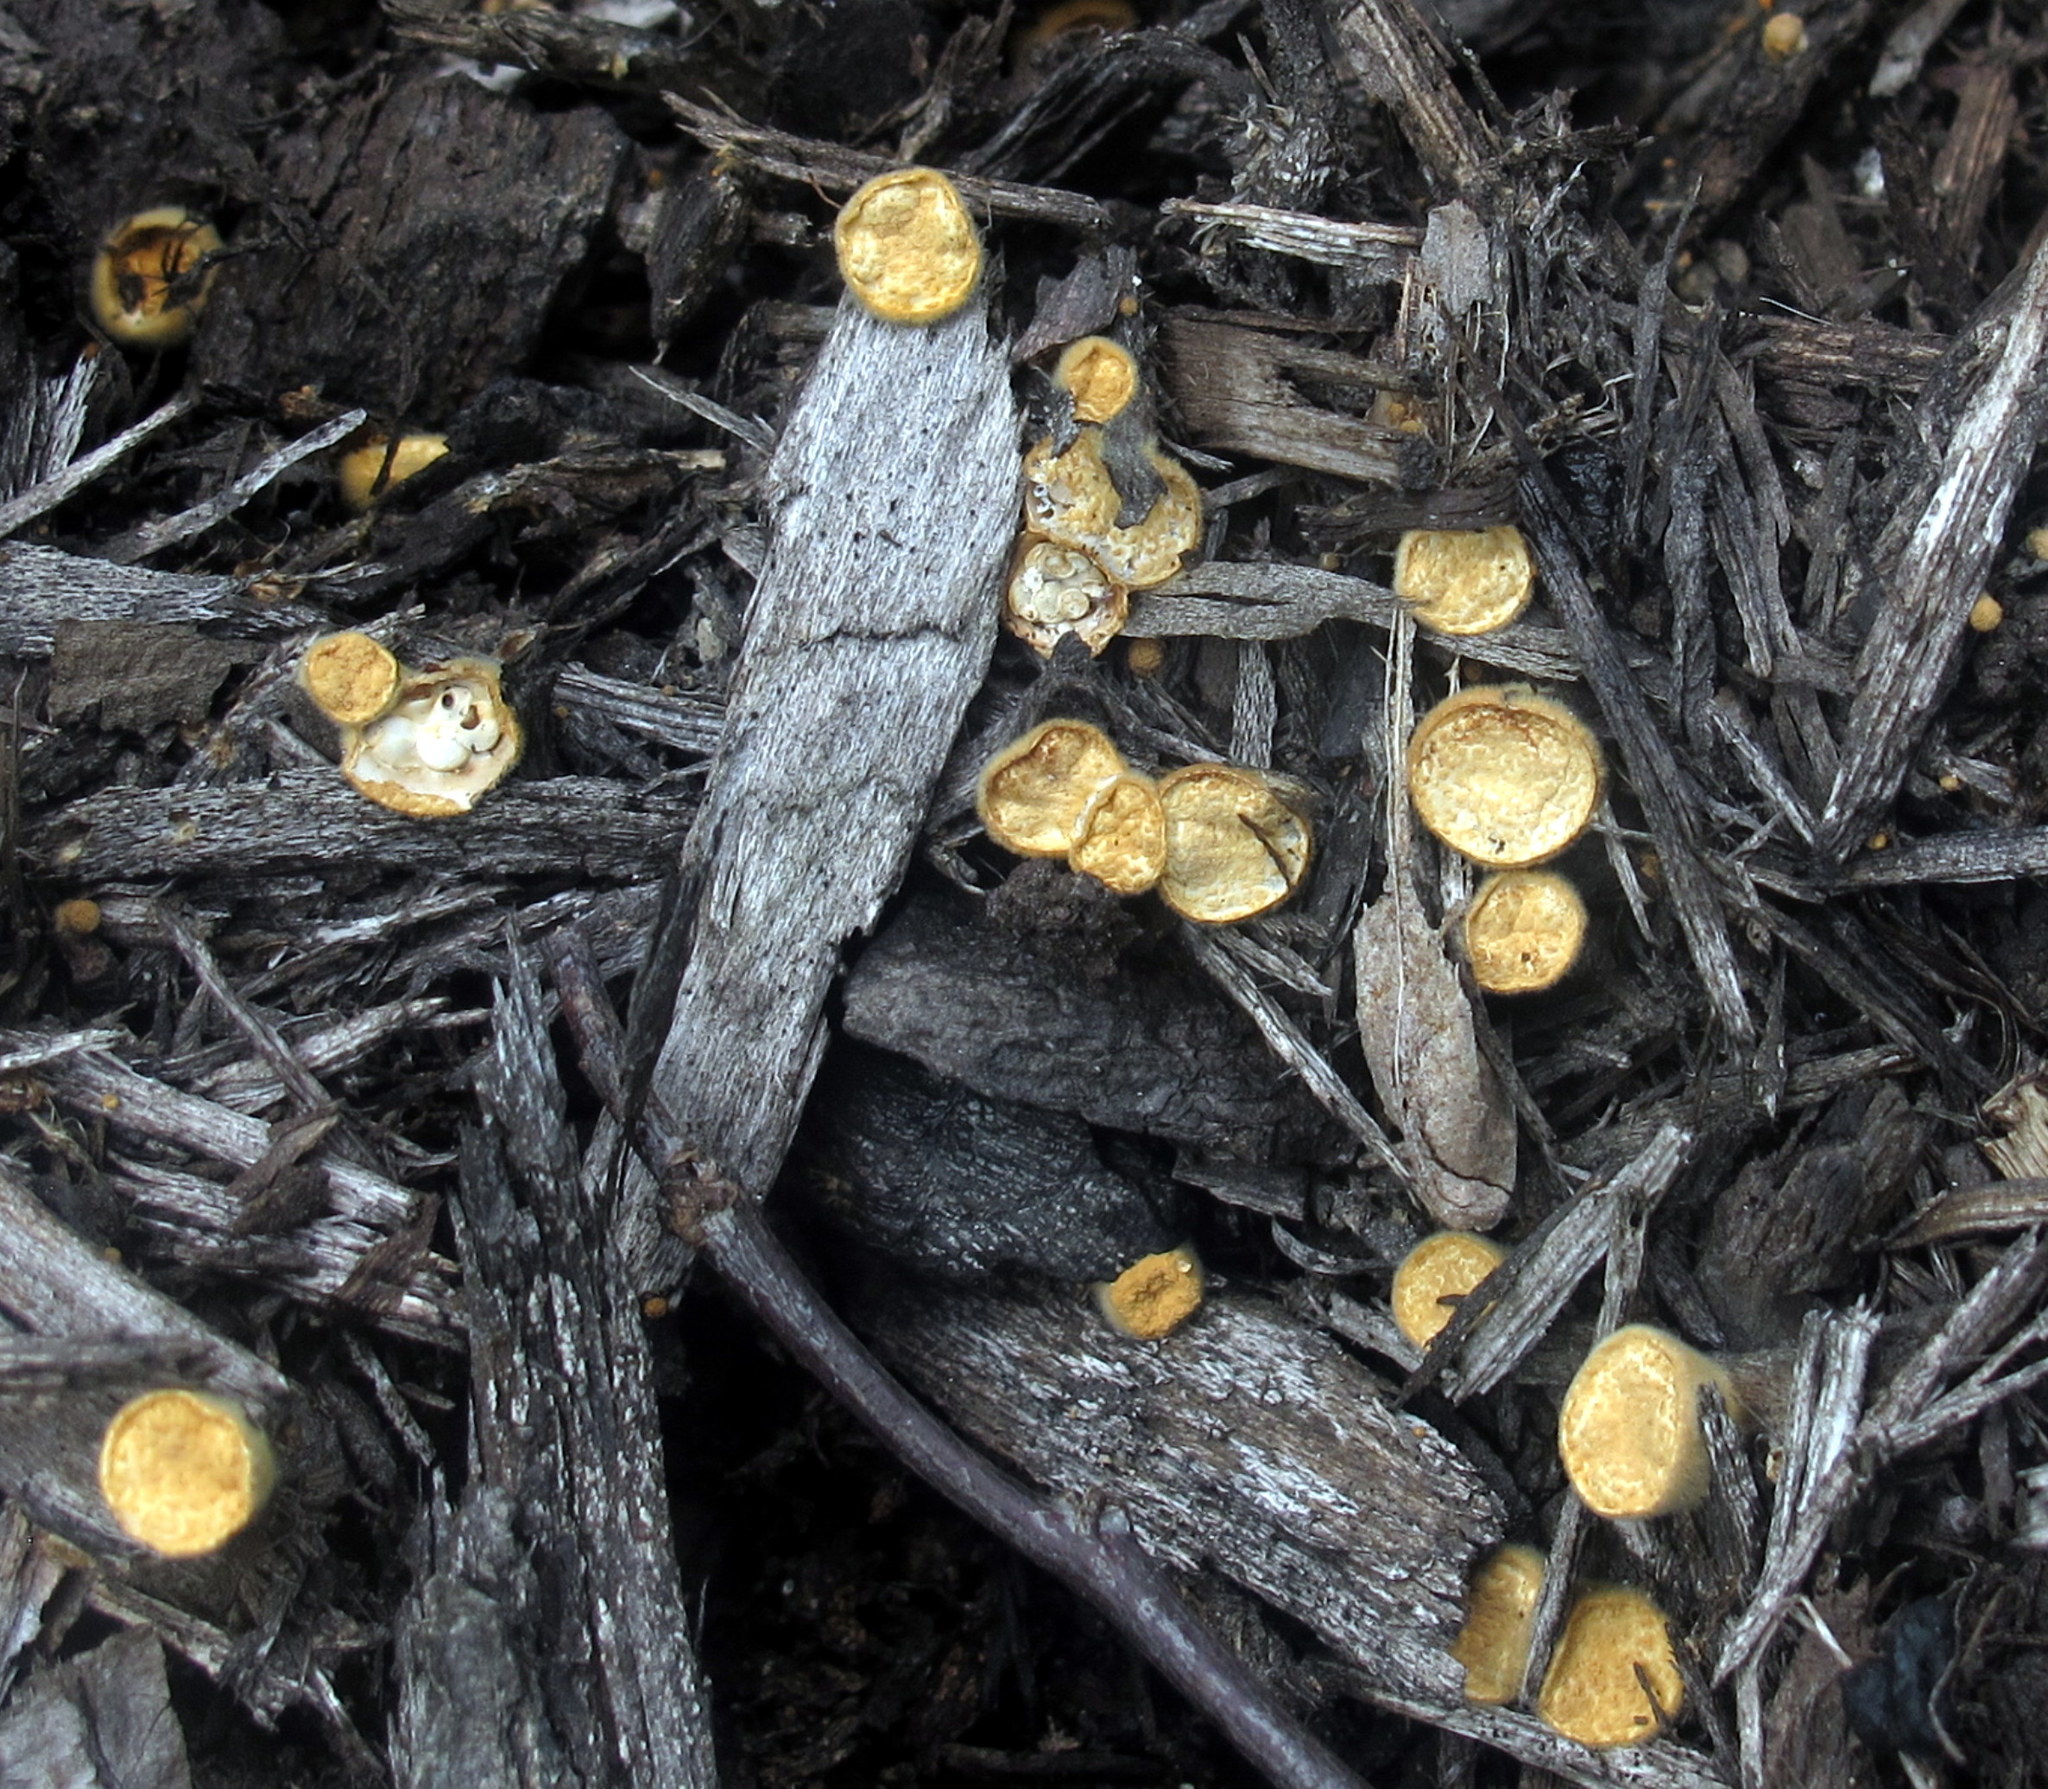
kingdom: Fungi
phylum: Basidiomycota
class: Agaricomycetes
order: Agaricales
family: Nidulariaceae
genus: Crucibulum
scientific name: Crucibulum laeve
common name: Common bird's nest
